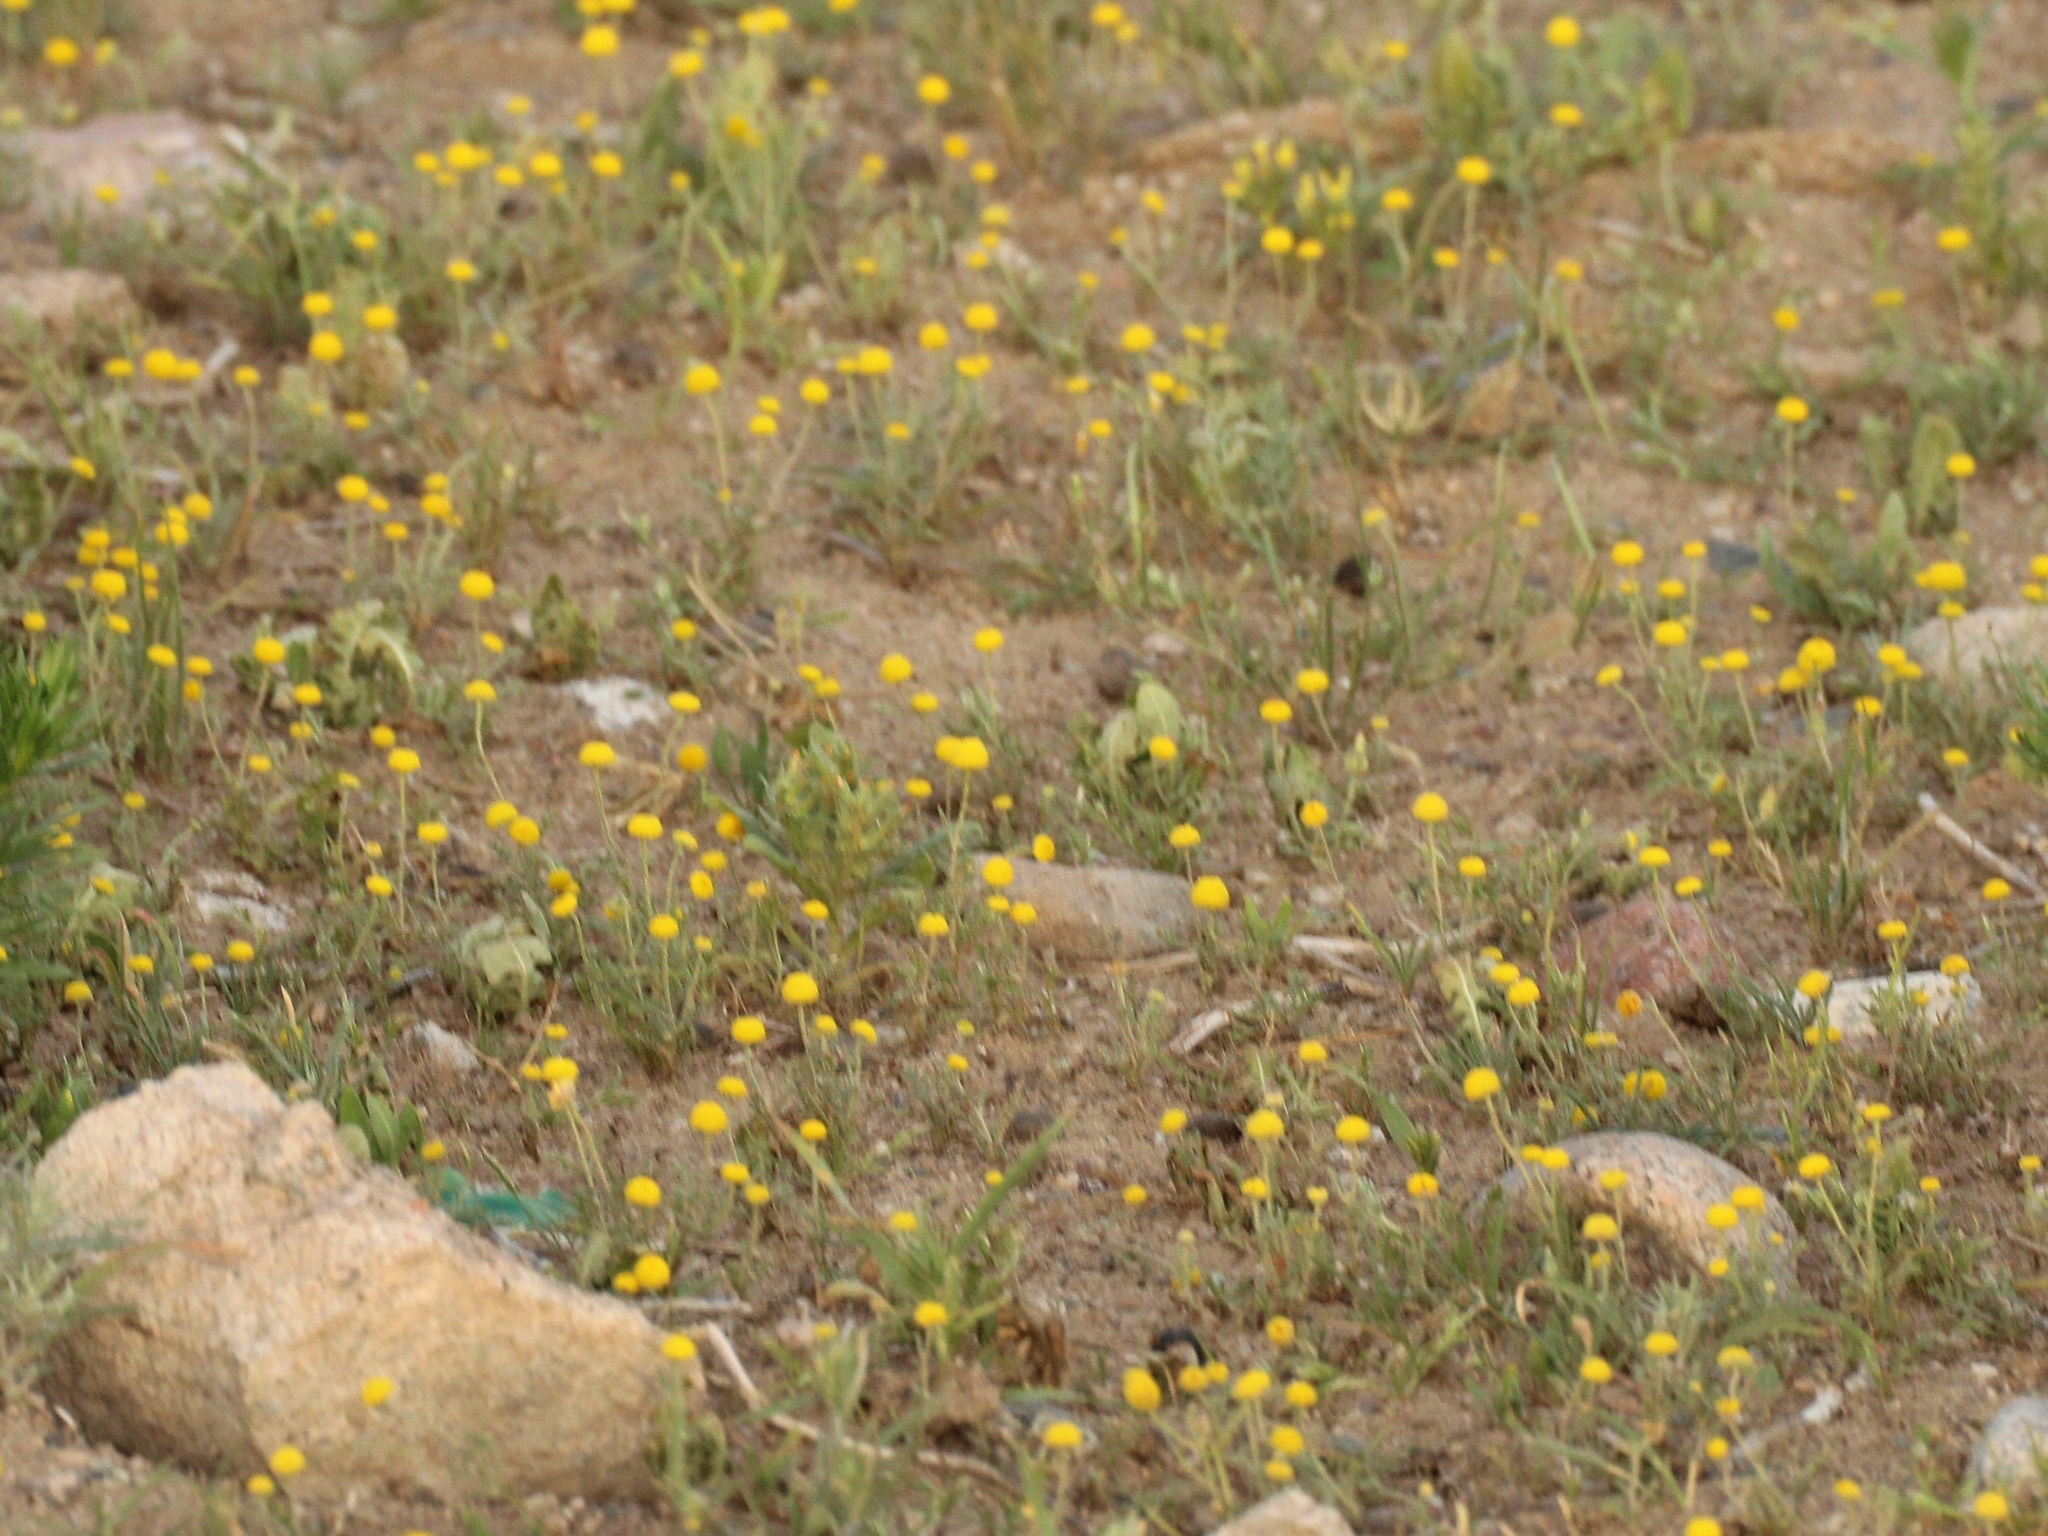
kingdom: Plantae
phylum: Tracheophyta
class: Magnoliopsida
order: Asterales
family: Asteraceae
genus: Cancrinia
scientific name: Cancrinia discoidea
